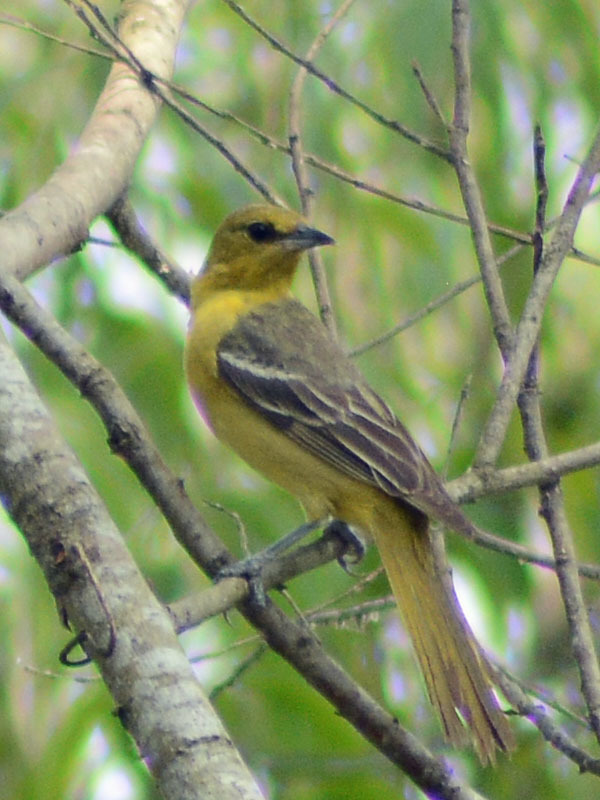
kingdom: Animalia
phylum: Chordata
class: Aves
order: Passeriformes
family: Icteridae
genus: Icterus
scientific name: Icterus spurius
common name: Orchard oriole
